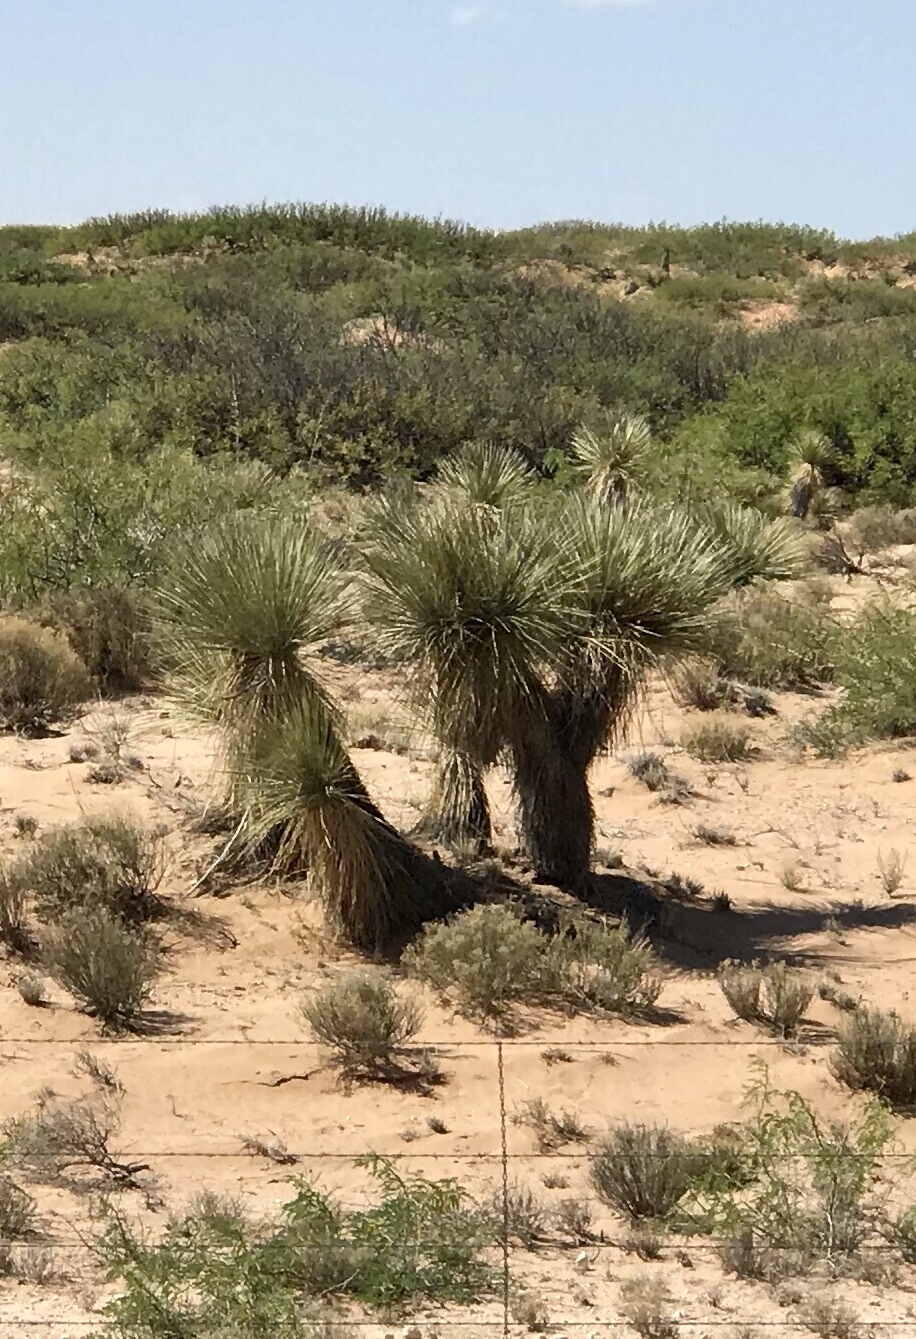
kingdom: Plantae
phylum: Tracheophyta
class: Liliopsida
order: Asparagales
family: Asparagaceae
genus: Yucca
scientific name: Yucca elata
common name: Palmella
